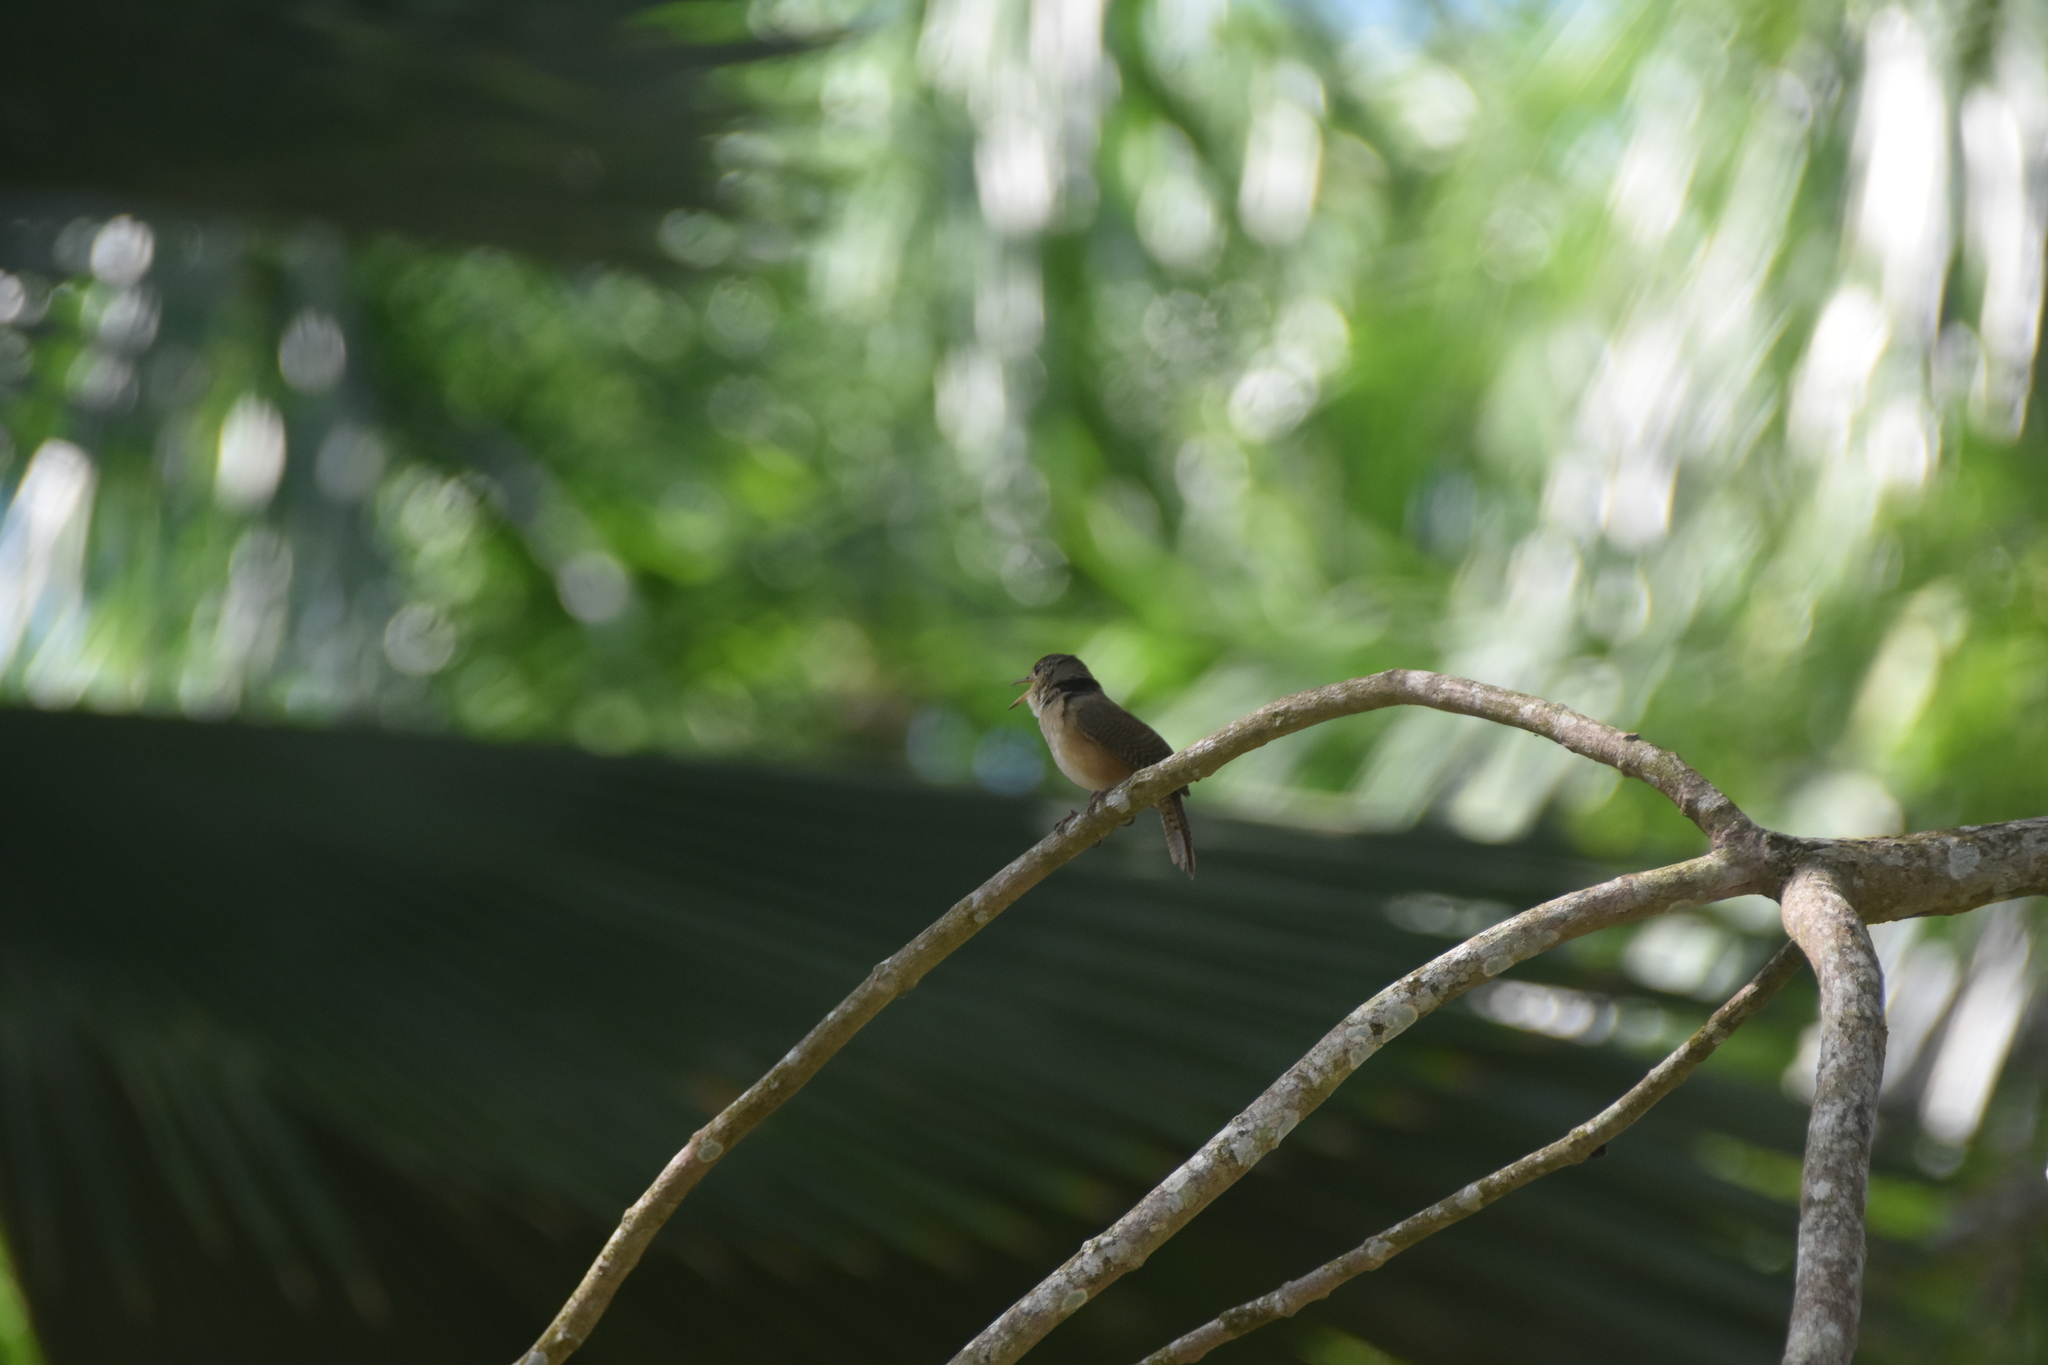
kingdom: Animalia
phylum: Chordata
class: Aves
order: Passeriformes
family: Troglodytidae
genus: Troglodytes
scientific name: Troglodytes aedon
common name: House wren
